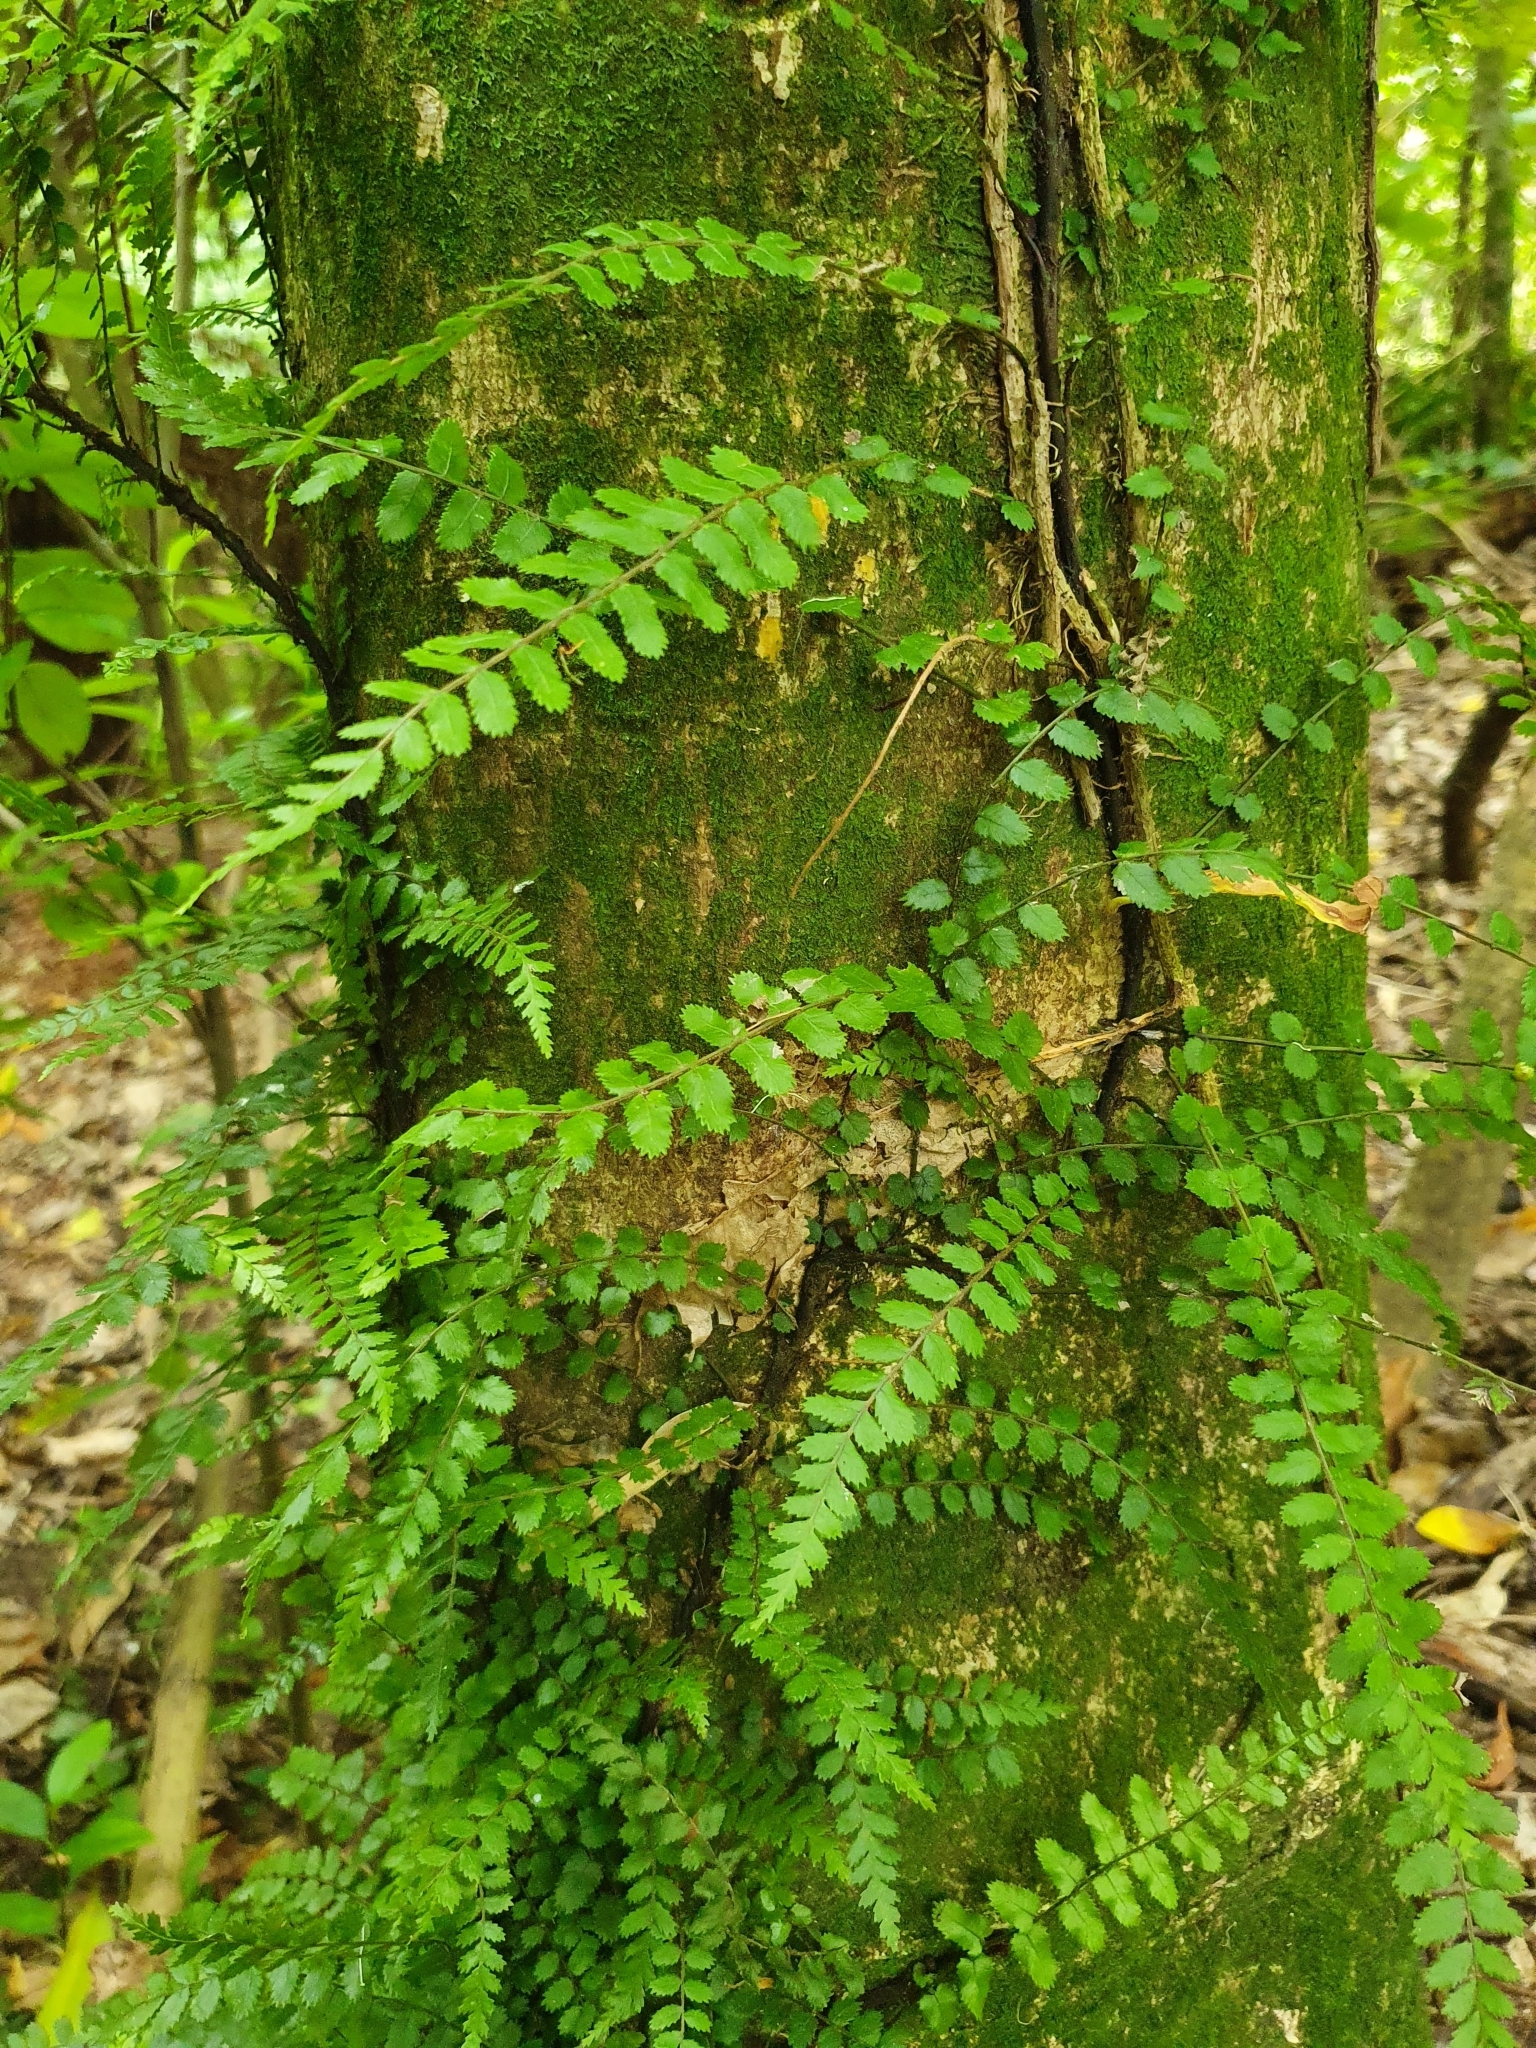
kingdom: Plantae
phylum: Tracheophyta
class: Polypodiopsida
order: Polypodiales
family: Blechnaceae
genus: Icarus
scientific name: Icarus filiformis
